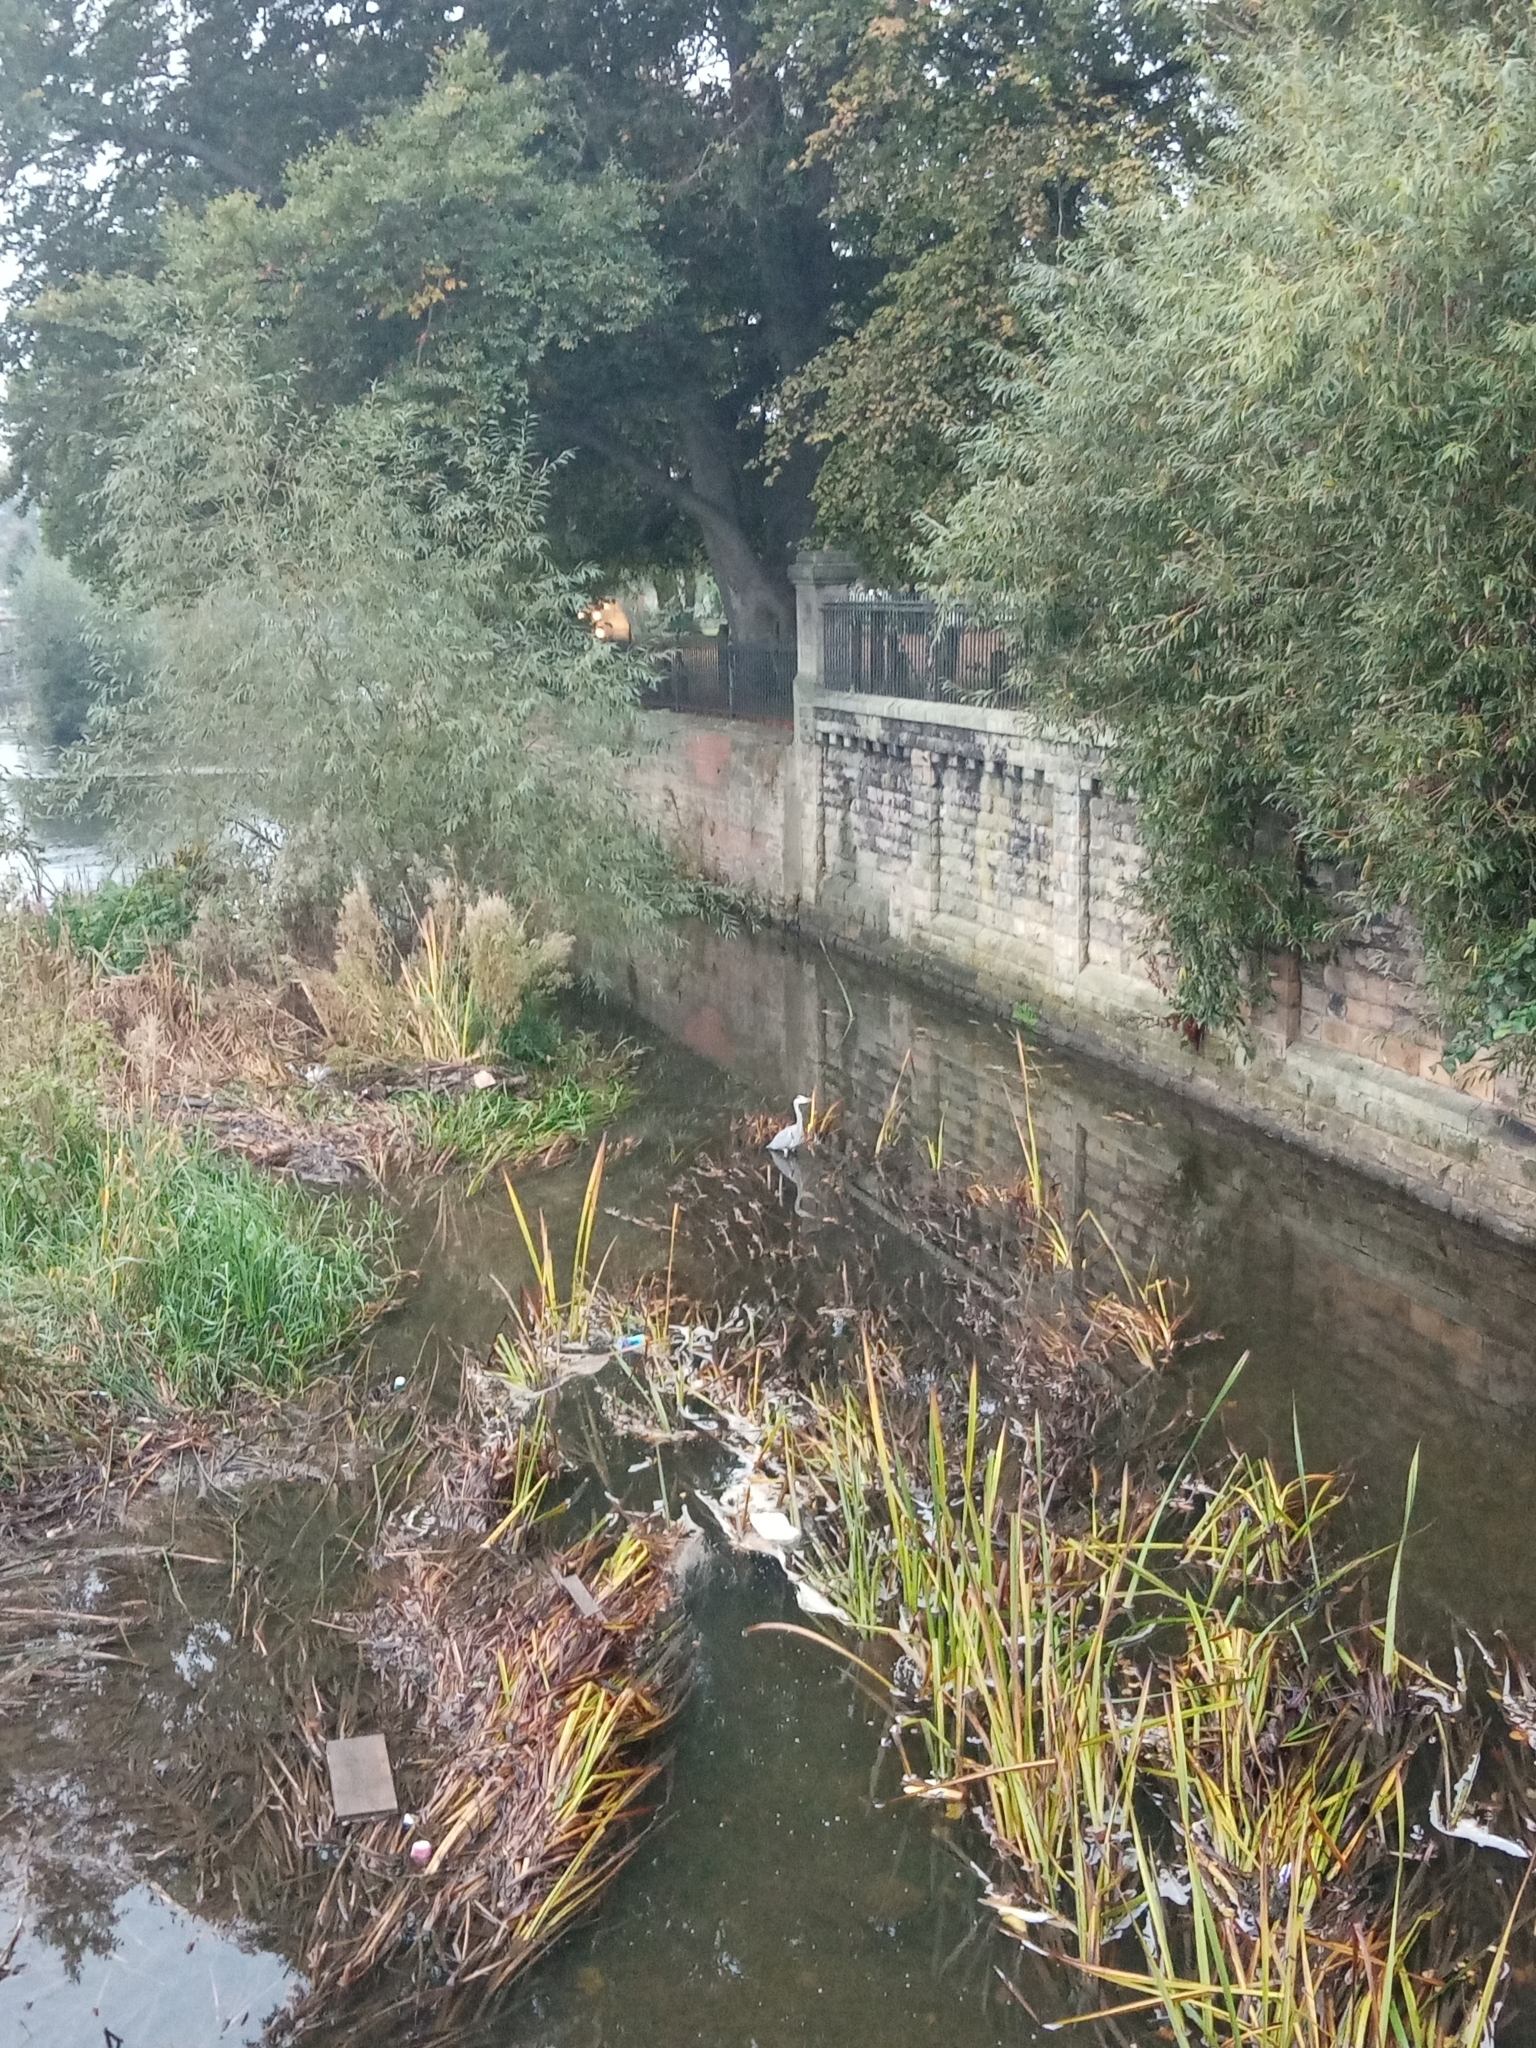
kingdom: Animalia
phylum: Chordata
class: Aves
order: Pelecaniformes
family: Ardeidae
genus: Ardea
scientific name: Ardea cinerea
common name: Grey heron
